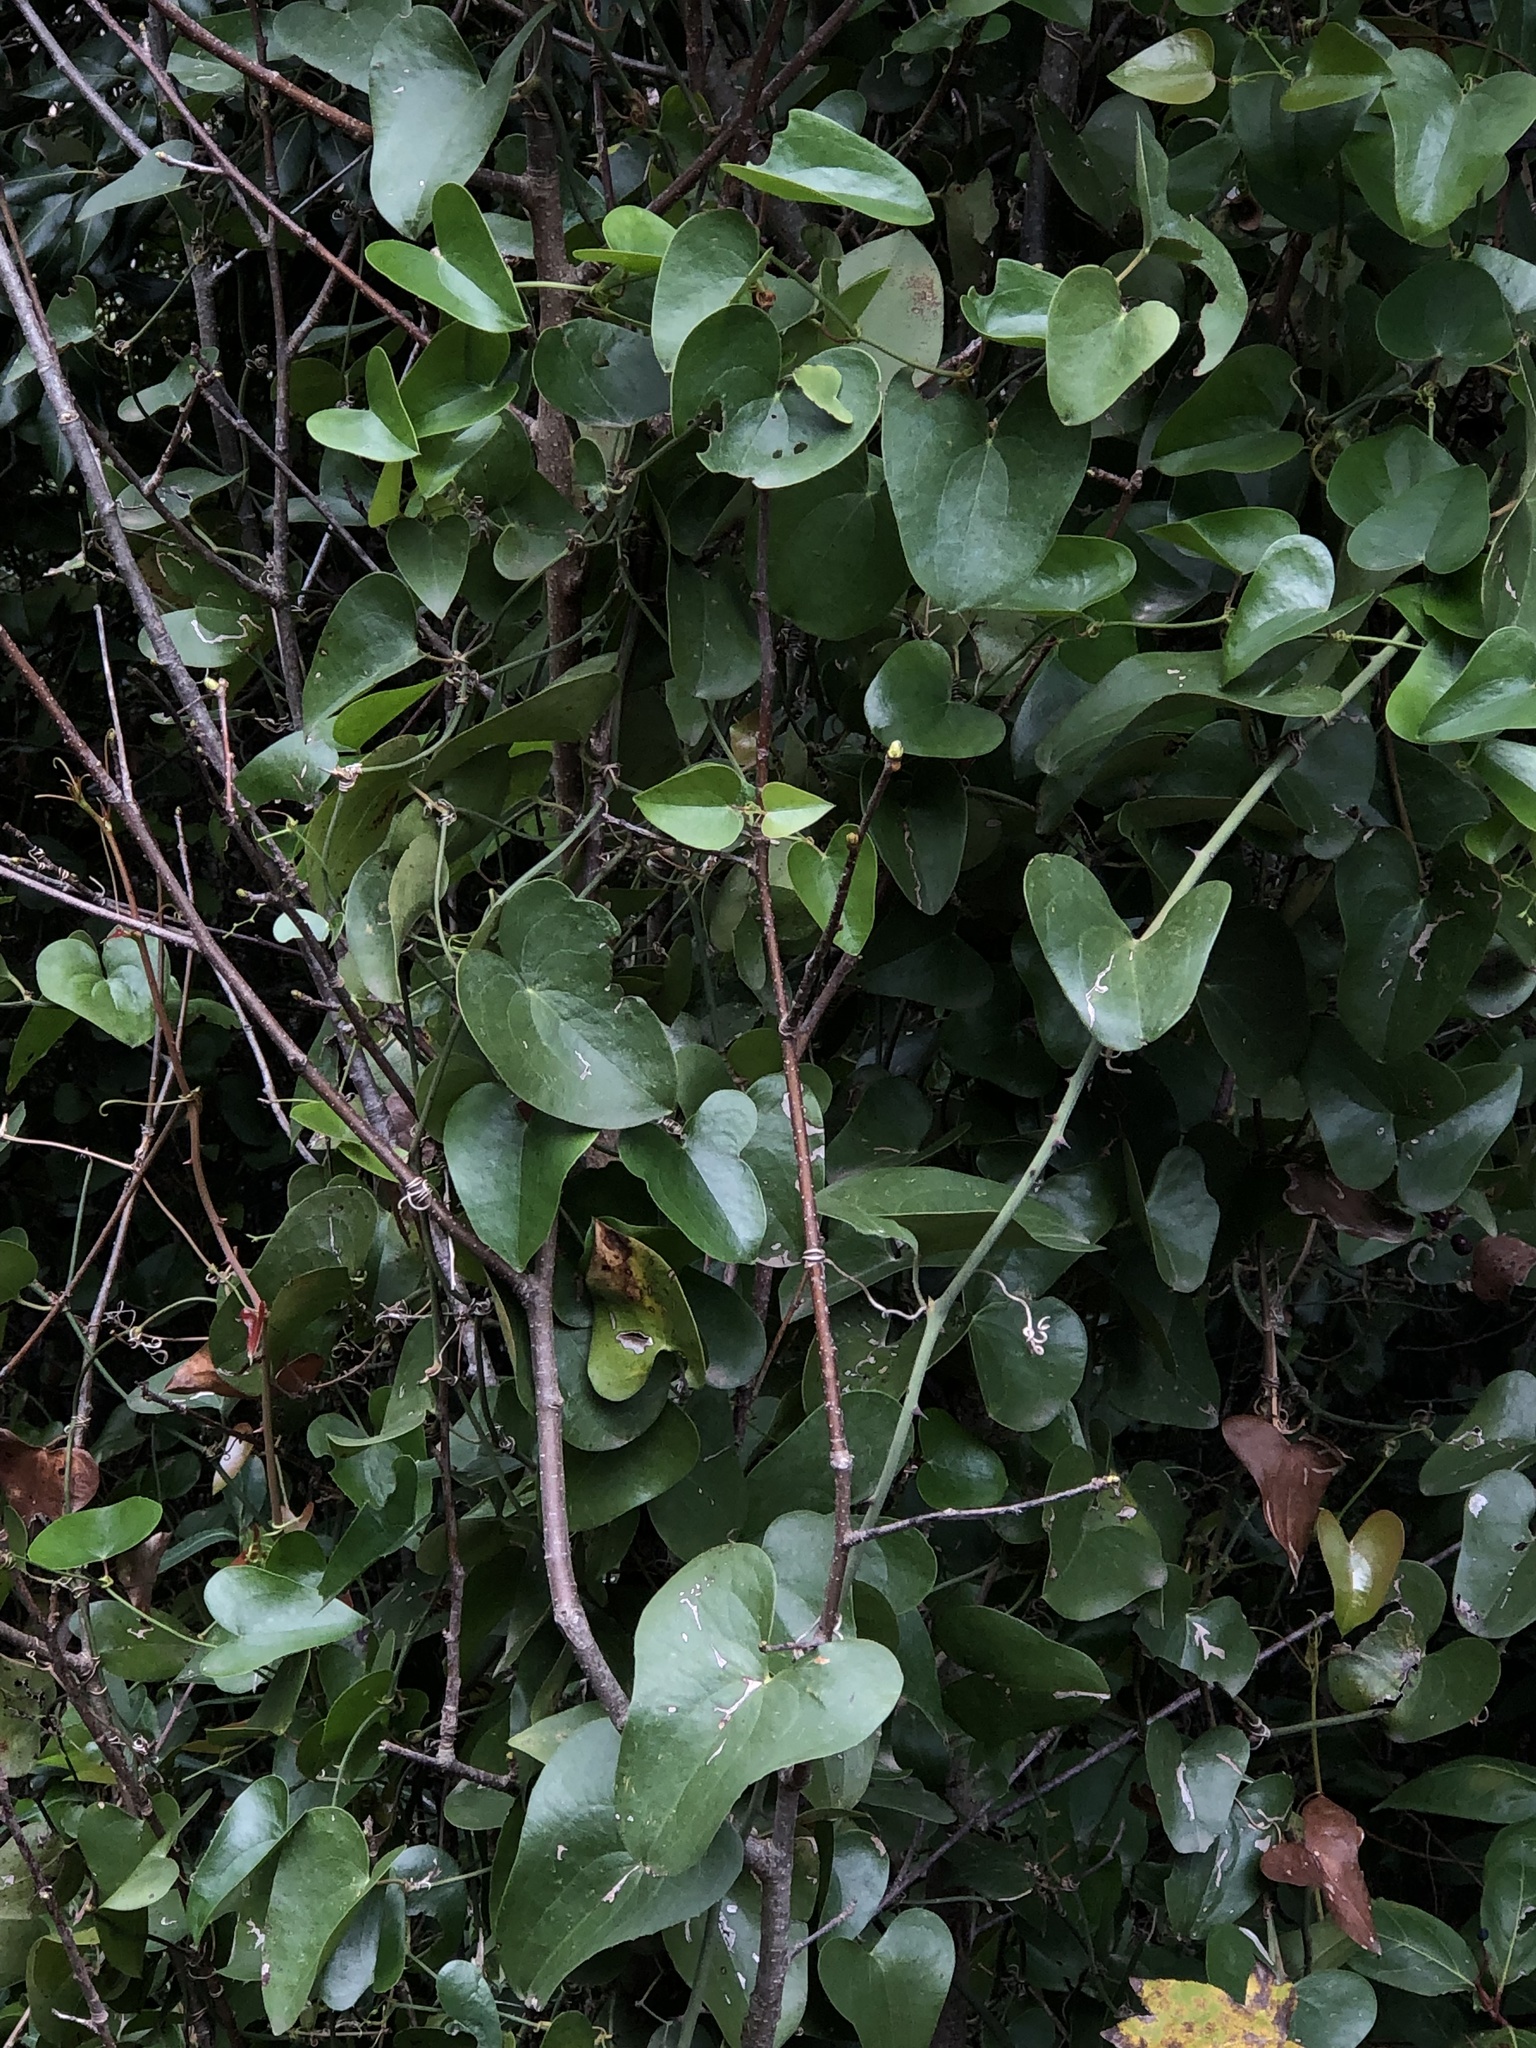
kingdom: Plantae
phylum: Tracheophyta
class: Liliopsida
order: Liliales
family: Smilacaceae
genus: Smilax
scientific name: Smilax aspera
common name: Common smilax
